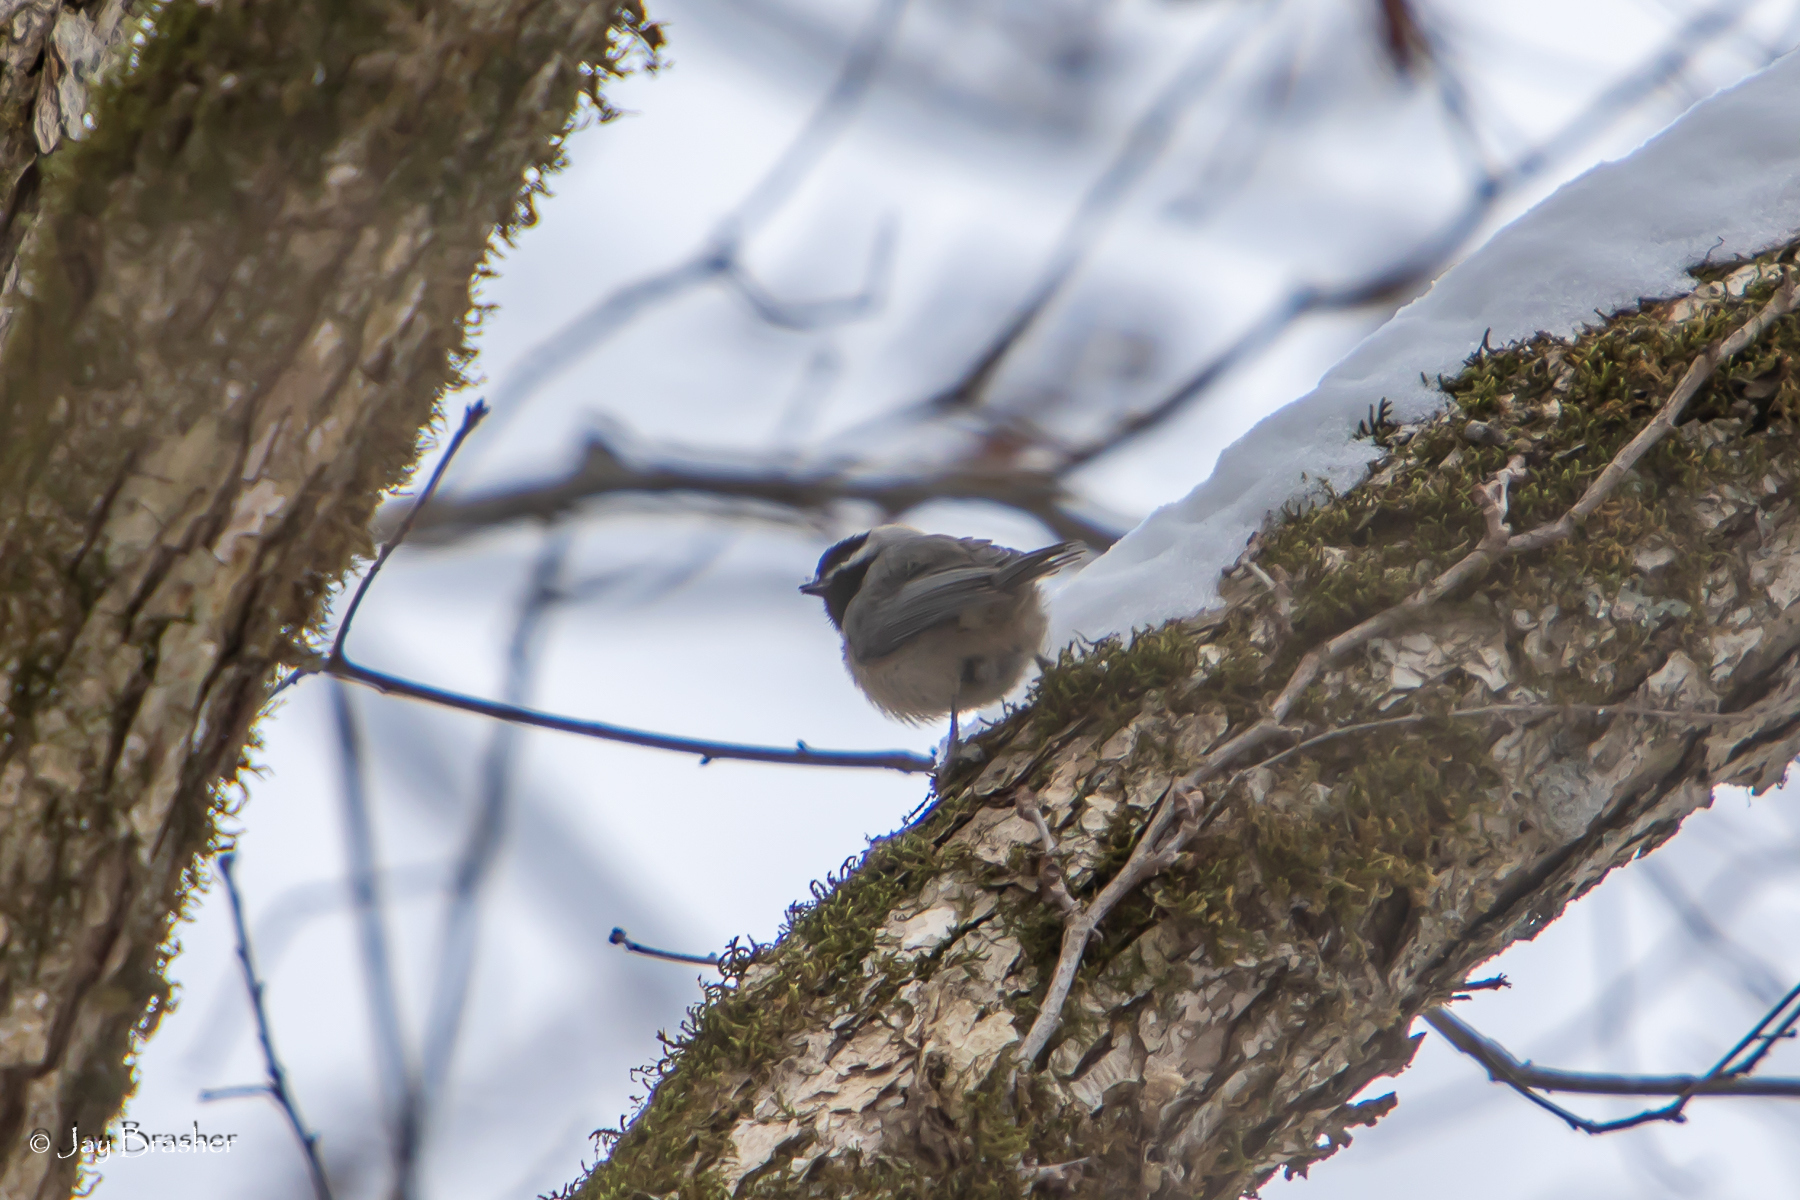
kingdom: Animalia
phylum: Chordata
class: Aves
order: Passeriformes
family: Paridae
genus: Poecile
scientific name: Poecile carolinensis
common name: Carolina chickadee
